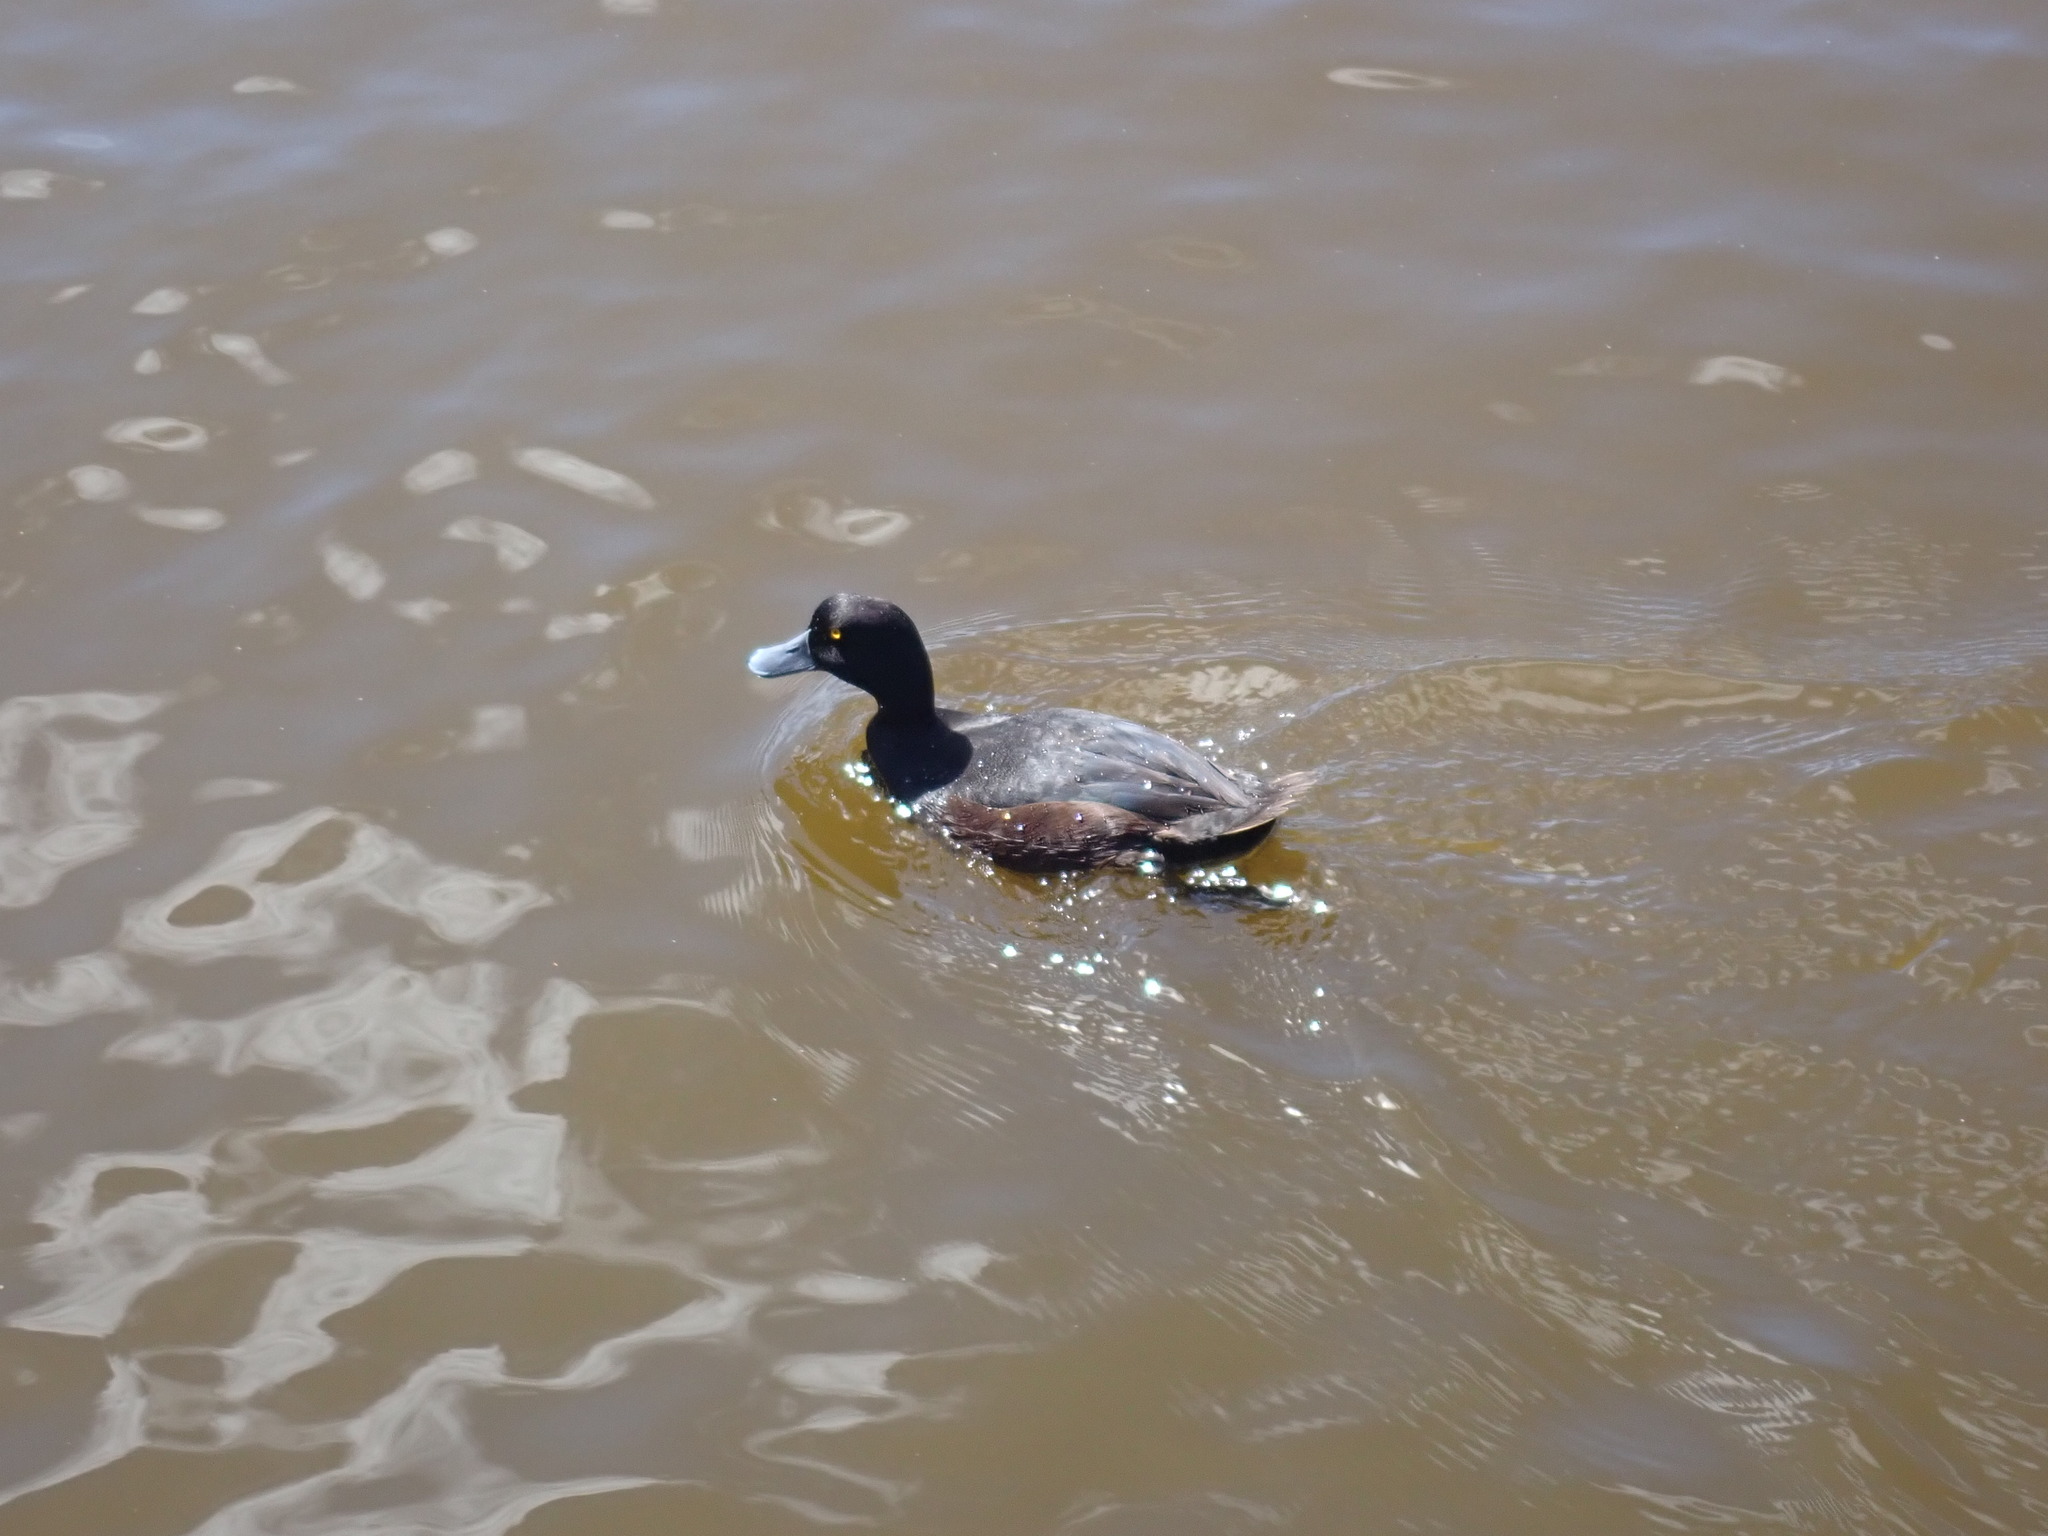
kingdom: Animalia
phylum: Chordata
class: Aves
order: Anseriformes
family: Anatidae
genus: Aythya
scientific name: Aythya novaeseelandiae
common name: New zealand scaup
